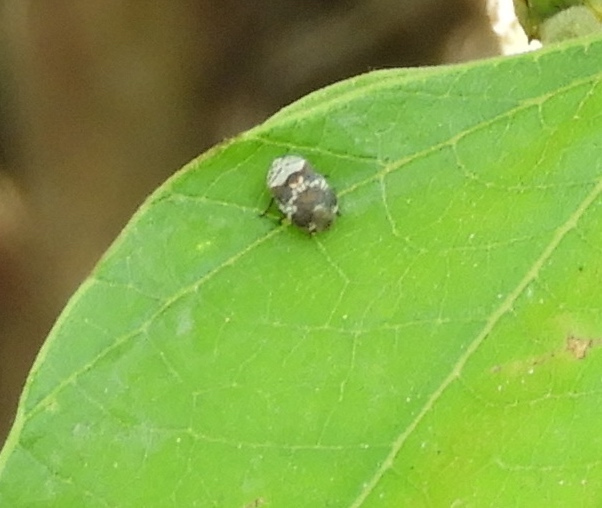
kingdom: Animalia
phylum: Arthropoda
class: Insecta
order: Hemiptera
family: Clastopteridae
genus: Clastoptera
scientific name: Clastoptera
